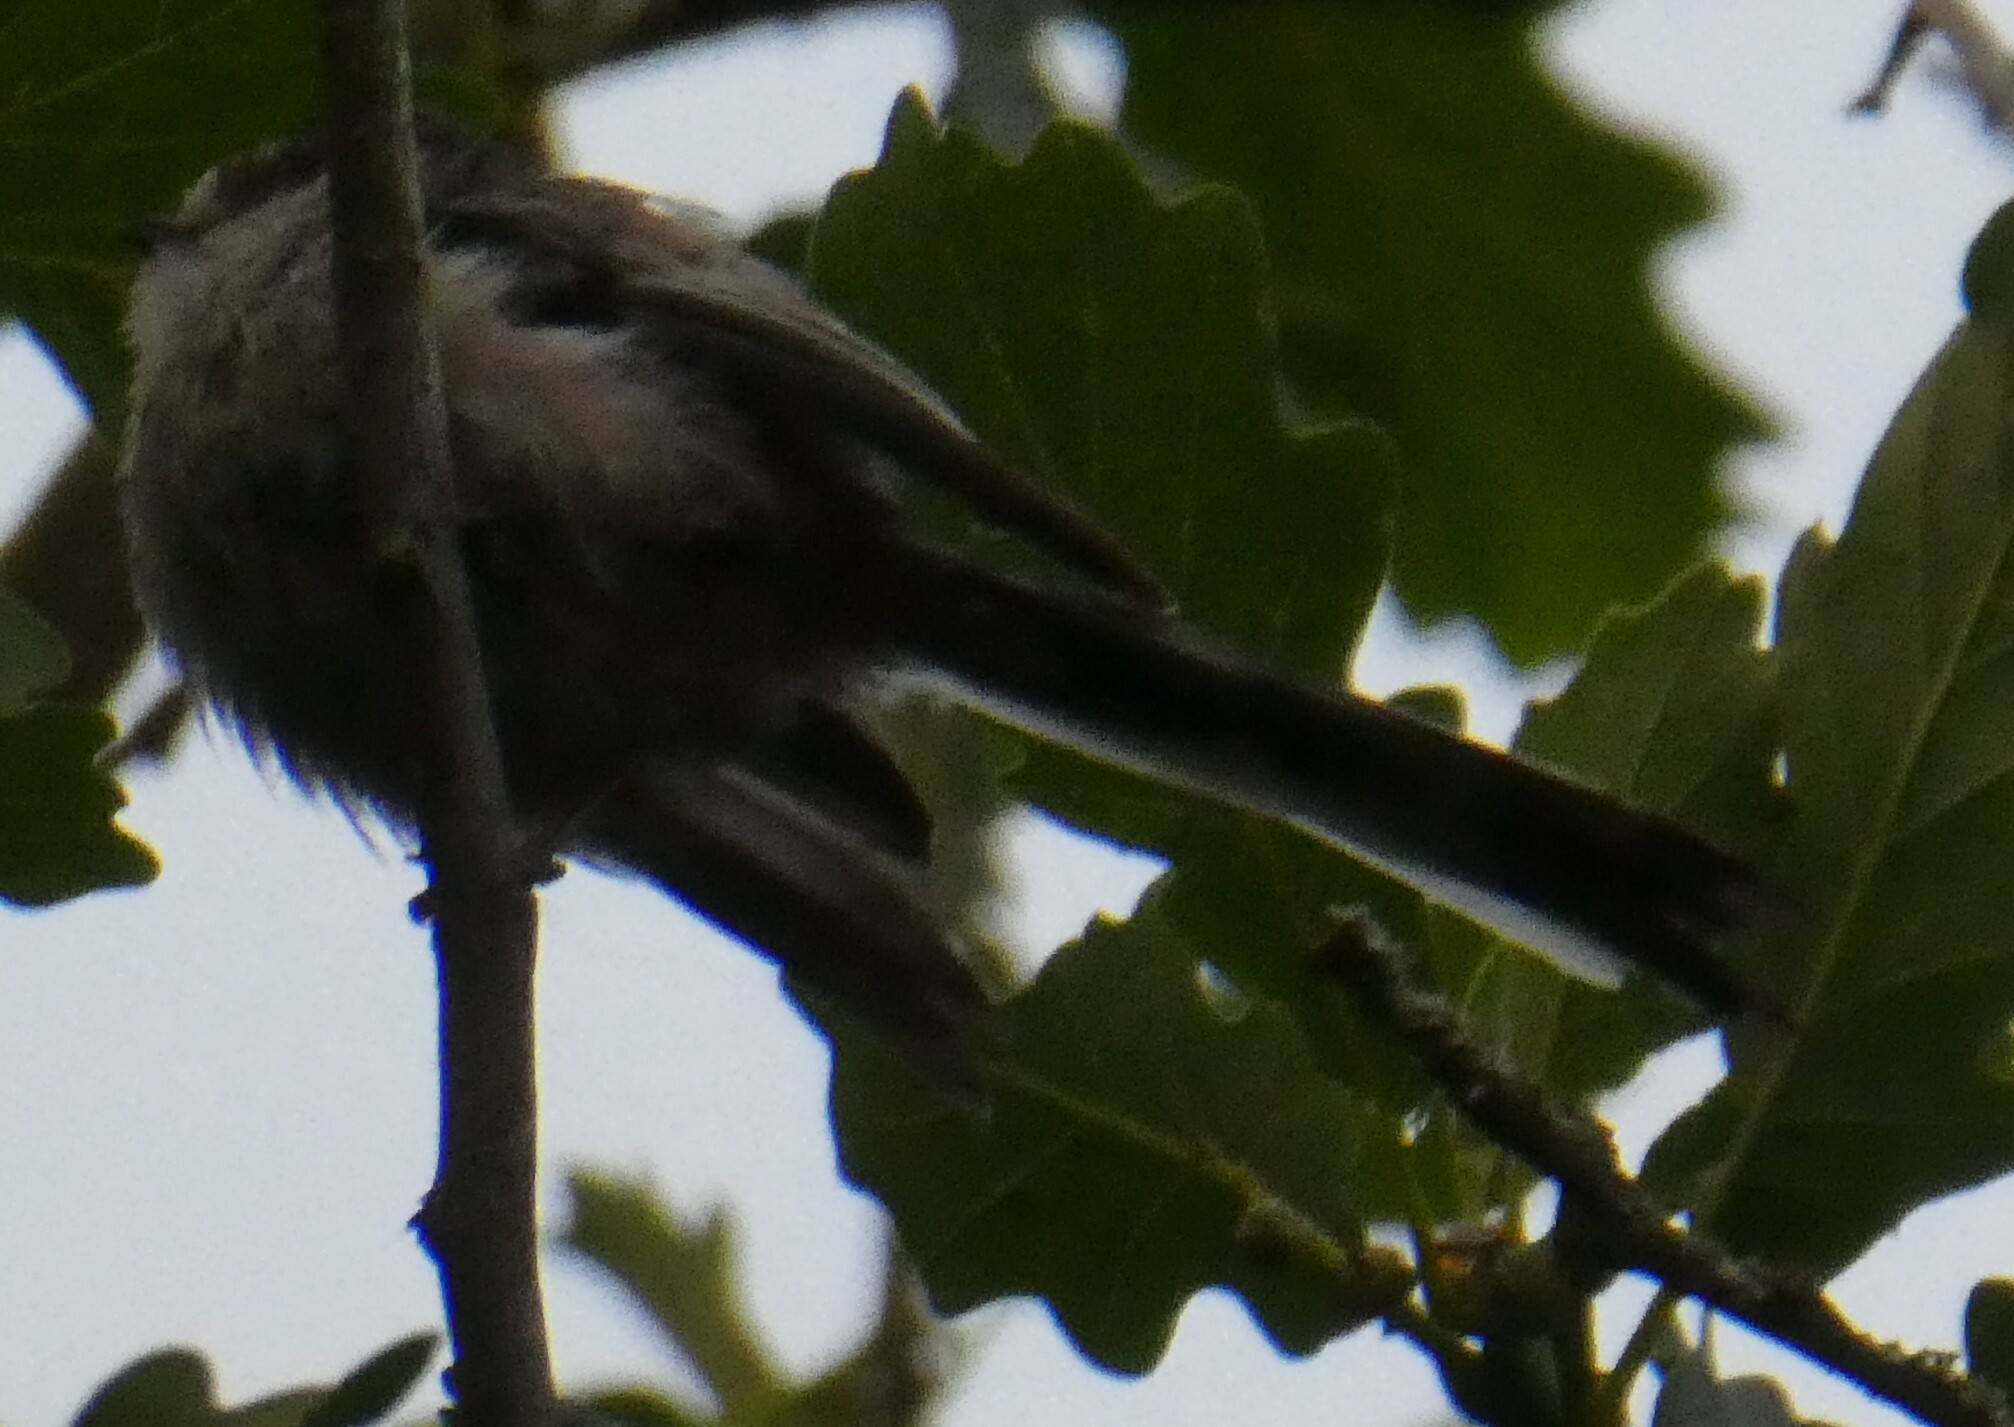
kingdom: Animalia
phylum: Chordata
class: Aves
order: Passeriformes
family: Aegithalidae
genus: Aegithalos
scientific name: Aegithalos caudatus
